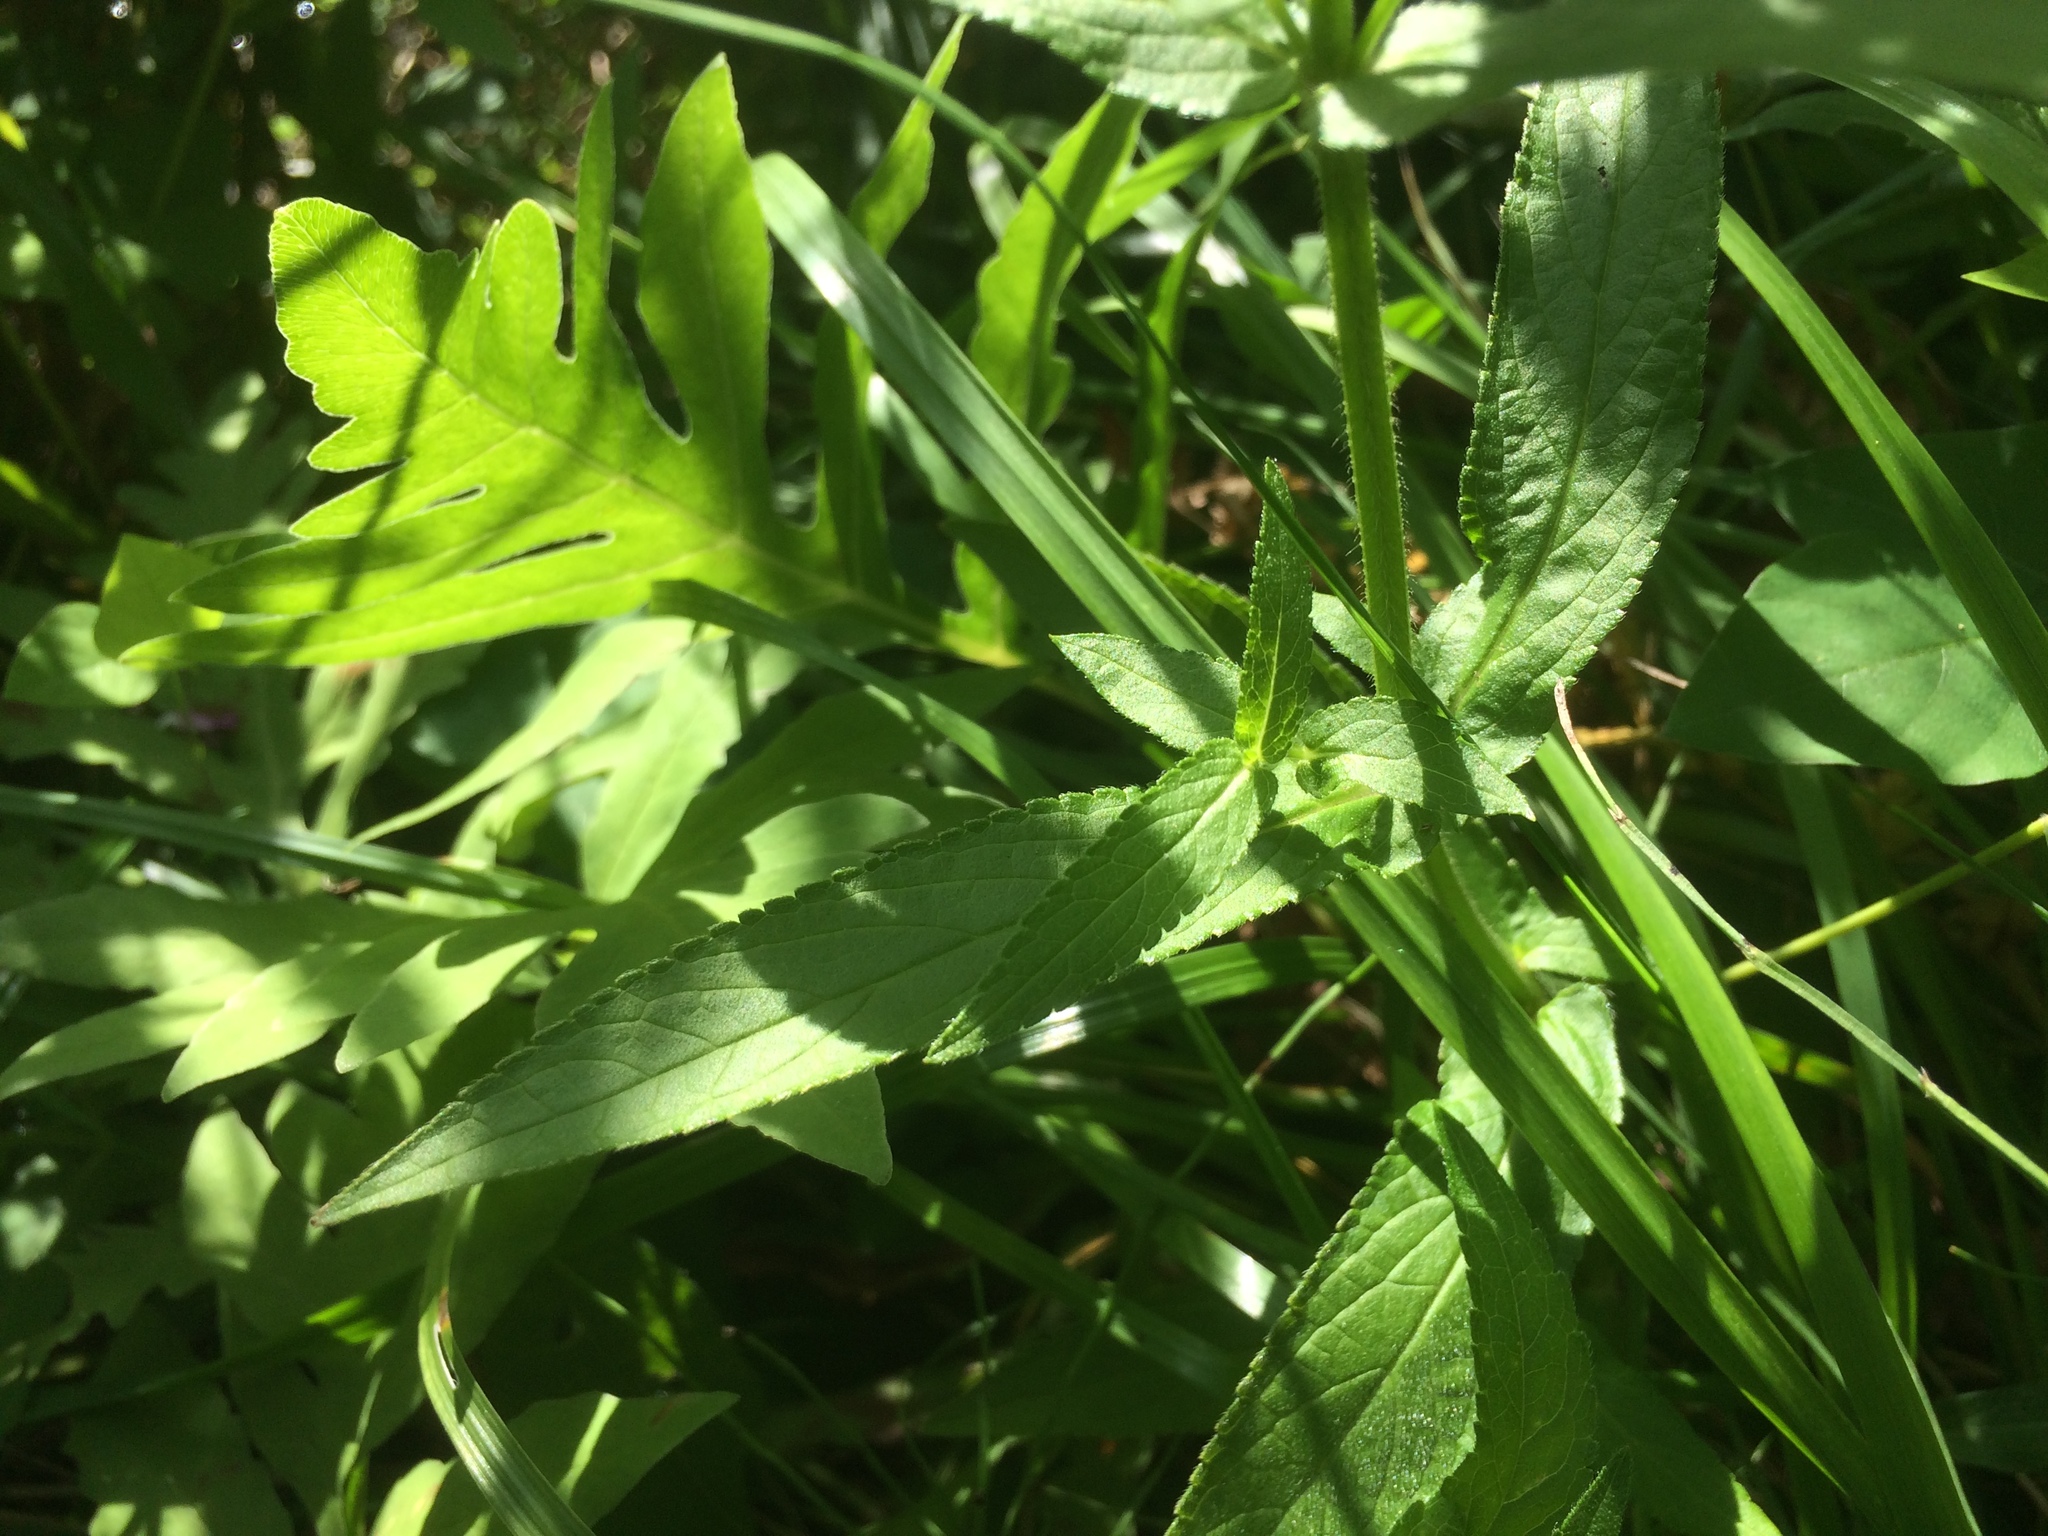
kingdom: Plantae
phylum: Tracheophyta
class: Magnoliopsida
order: Lamiales
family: Lamiaceae
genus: Stachys
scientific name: Stachys hispida
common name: Hispid hedge-nettle
